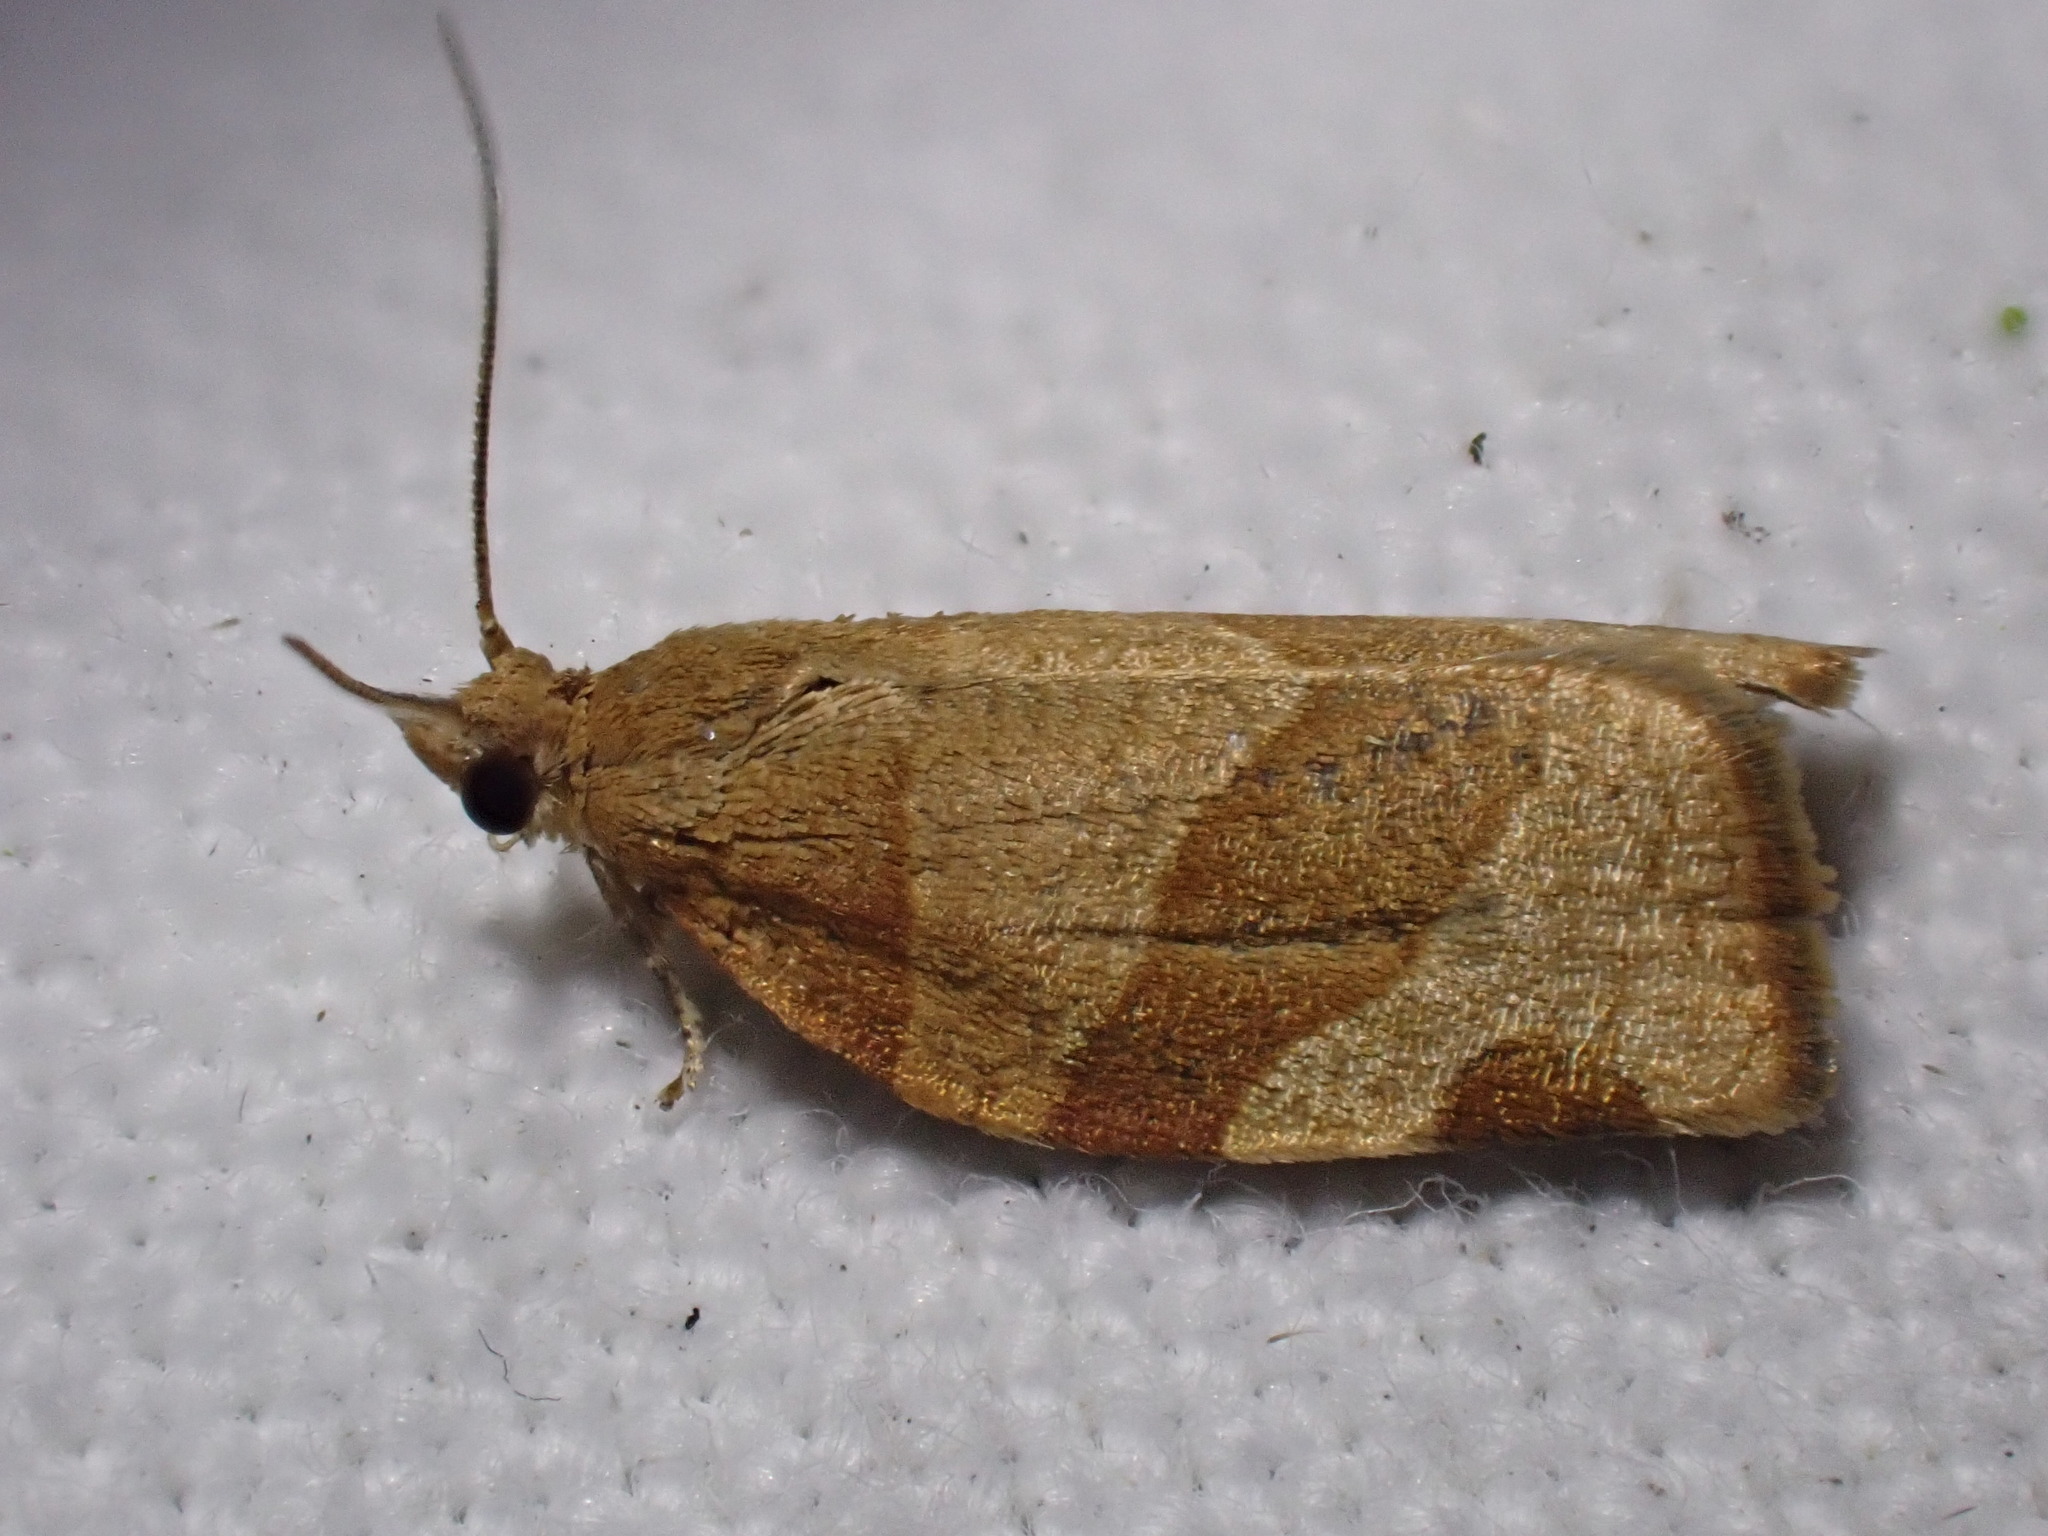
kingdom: Animalia
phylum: Arthropoda
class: Insecta
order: Lepidoptera
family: Tortricidae
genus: Pandemis
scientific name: Pandemis cerasana
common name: Barred fruit-tree tortrix
